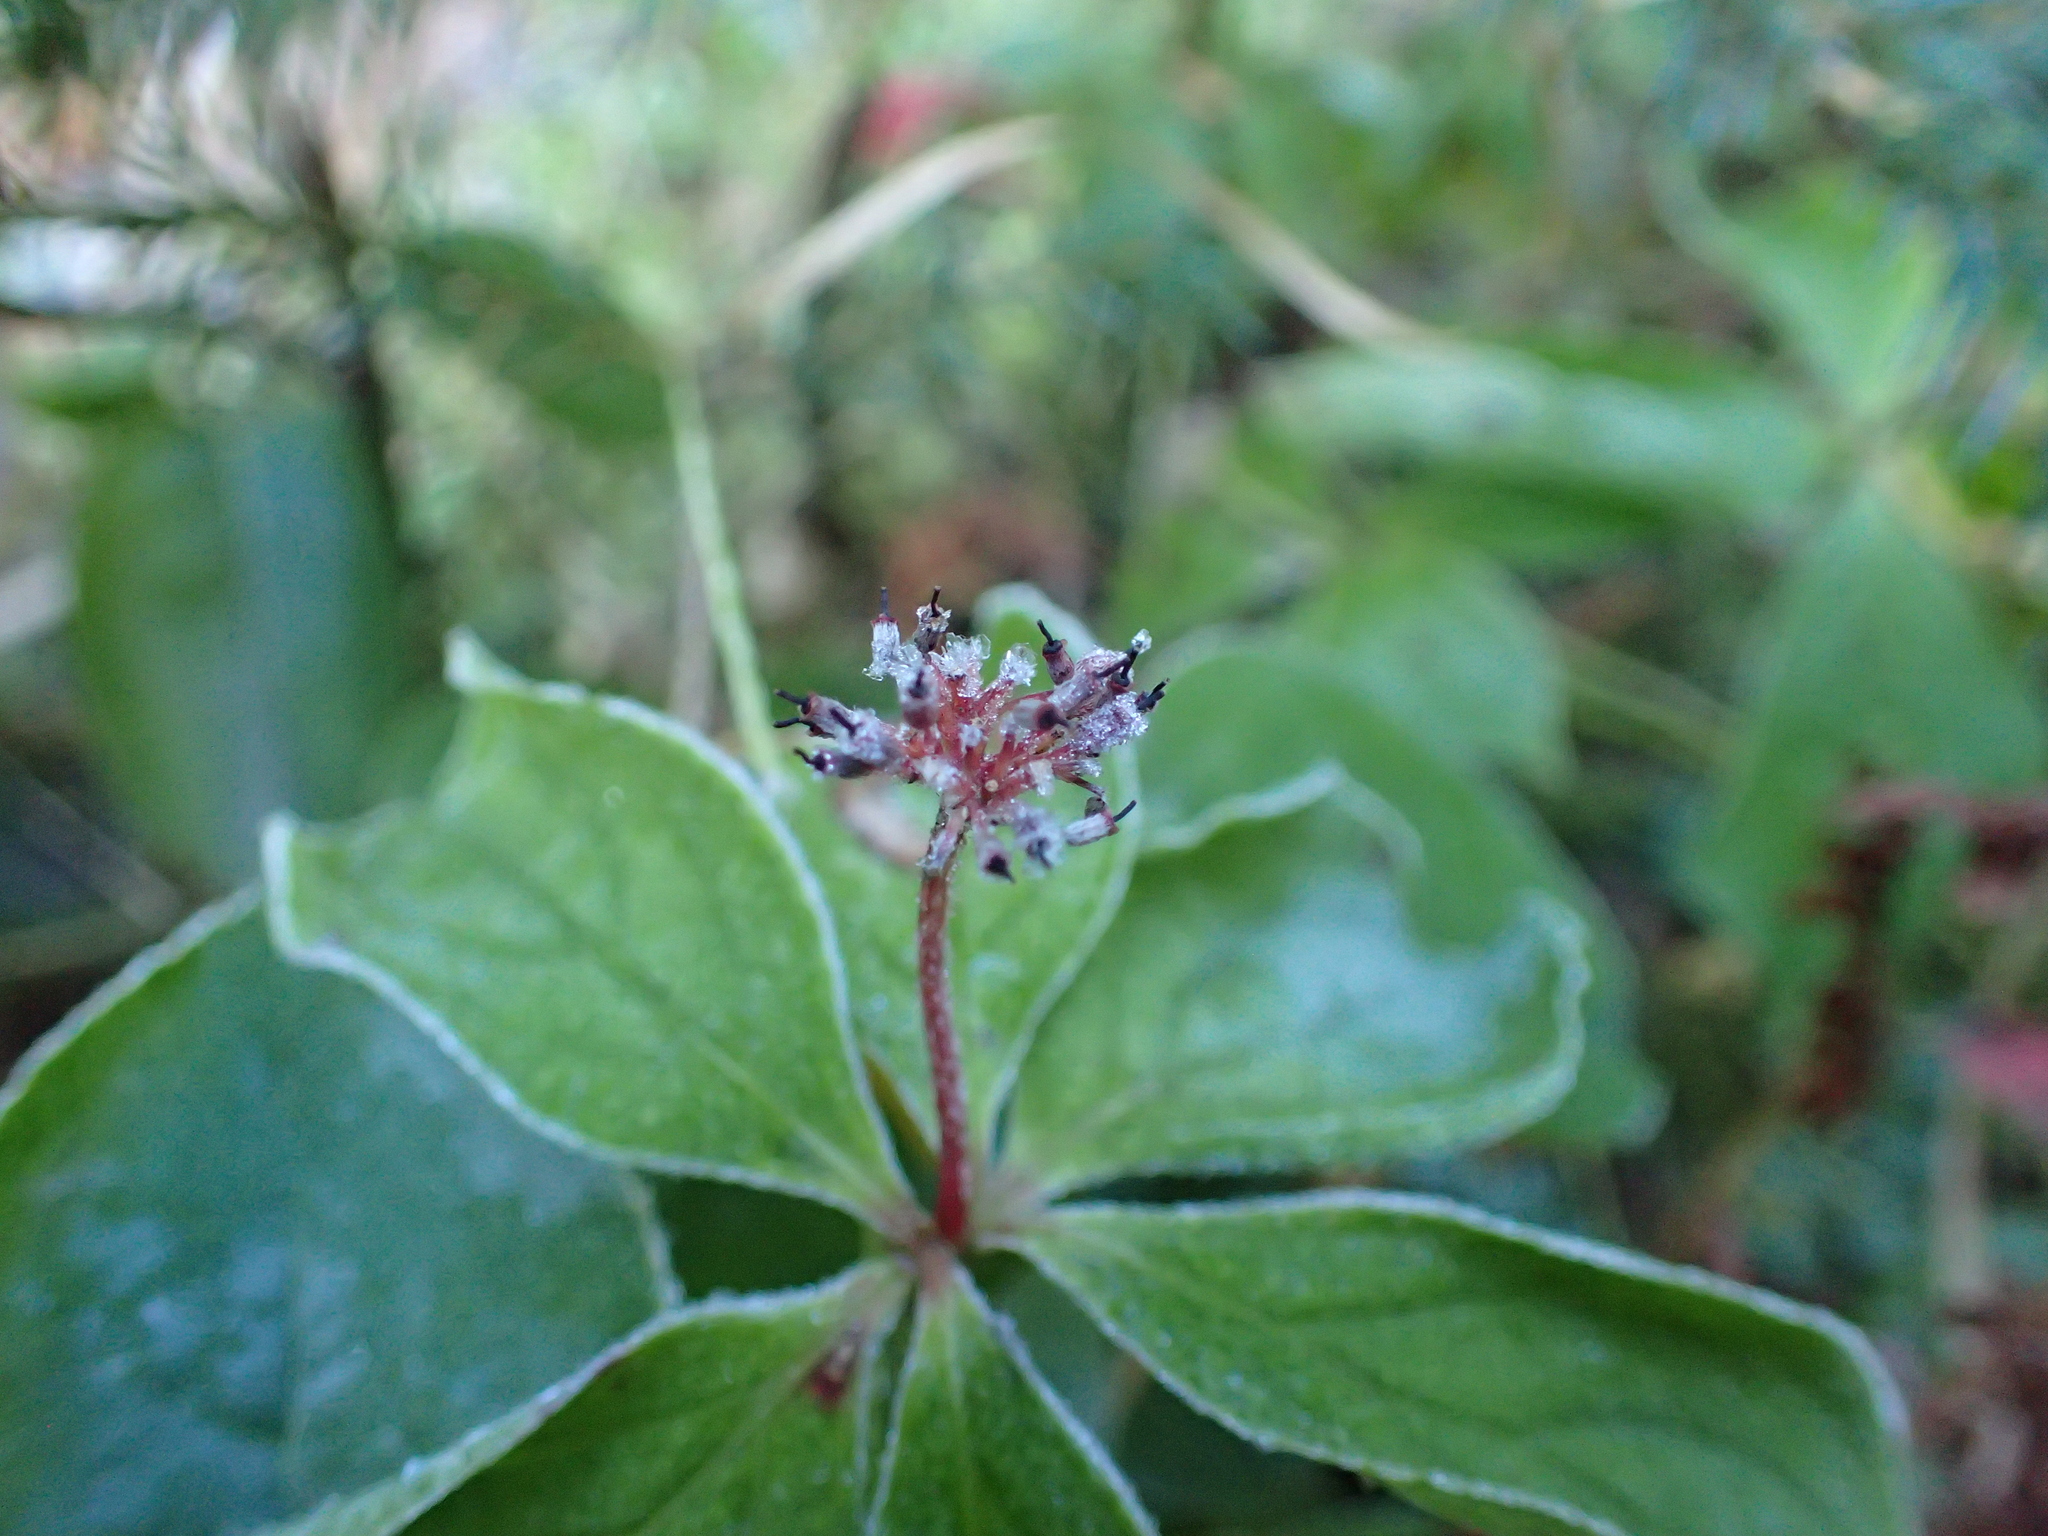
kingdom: Plantae
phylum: Tracheophyta
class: Magnoliopsida
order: Cornales
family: Cornaceae
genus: Cornus
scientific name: Cornus unalaschkensis
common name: Alaska bunchberry
